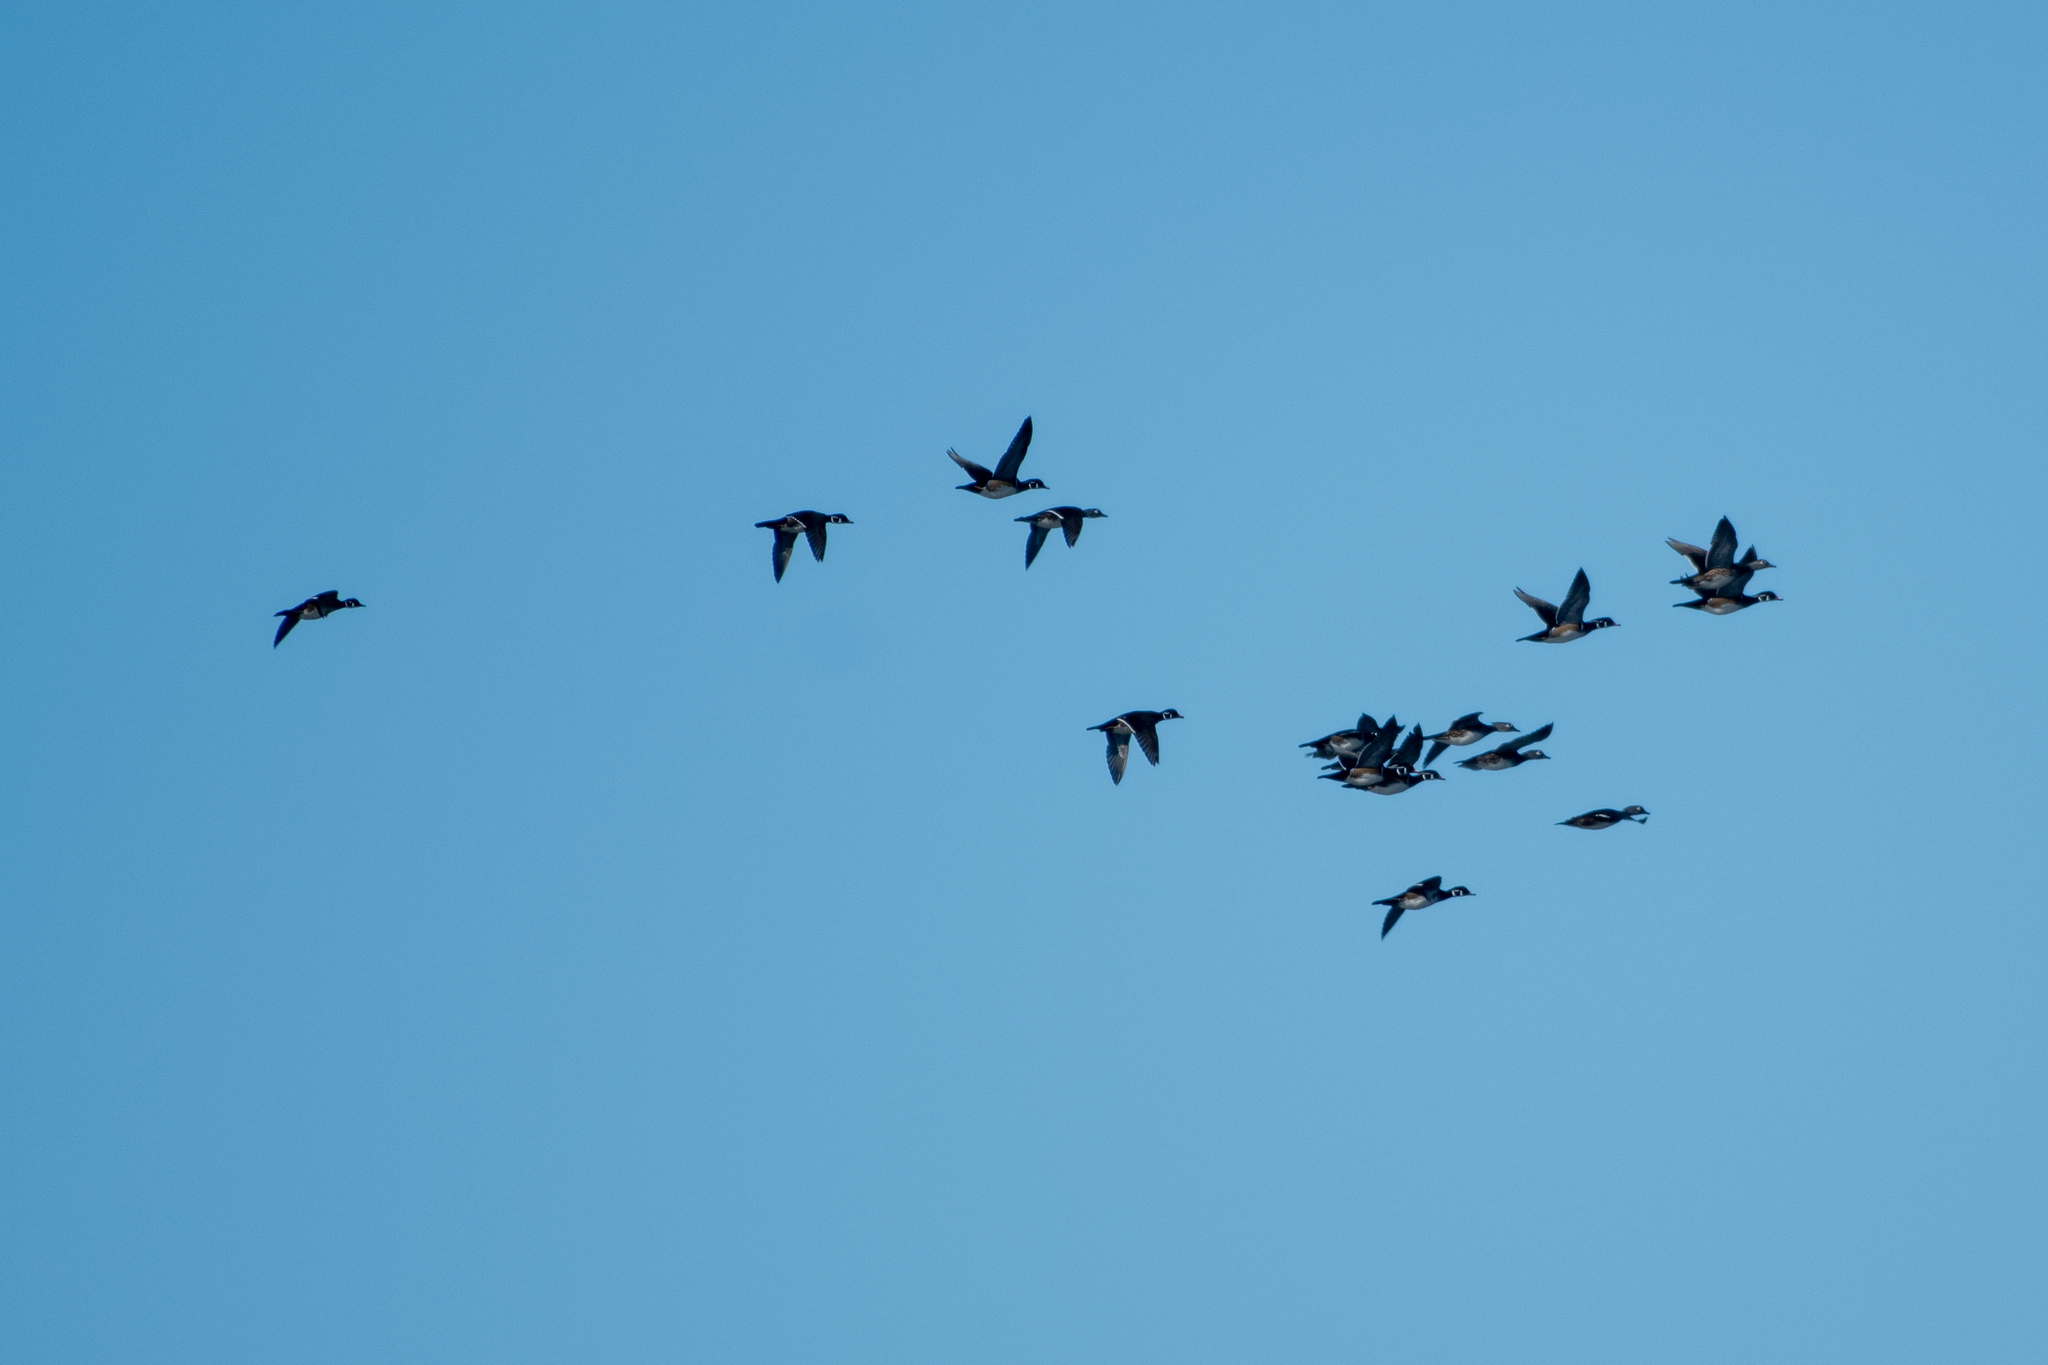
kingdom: Animalia
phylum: Chordata
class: Aves
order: Anseriformes
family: Anatidae
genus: Aix
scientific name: Aix sponsa
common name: Wood duck
